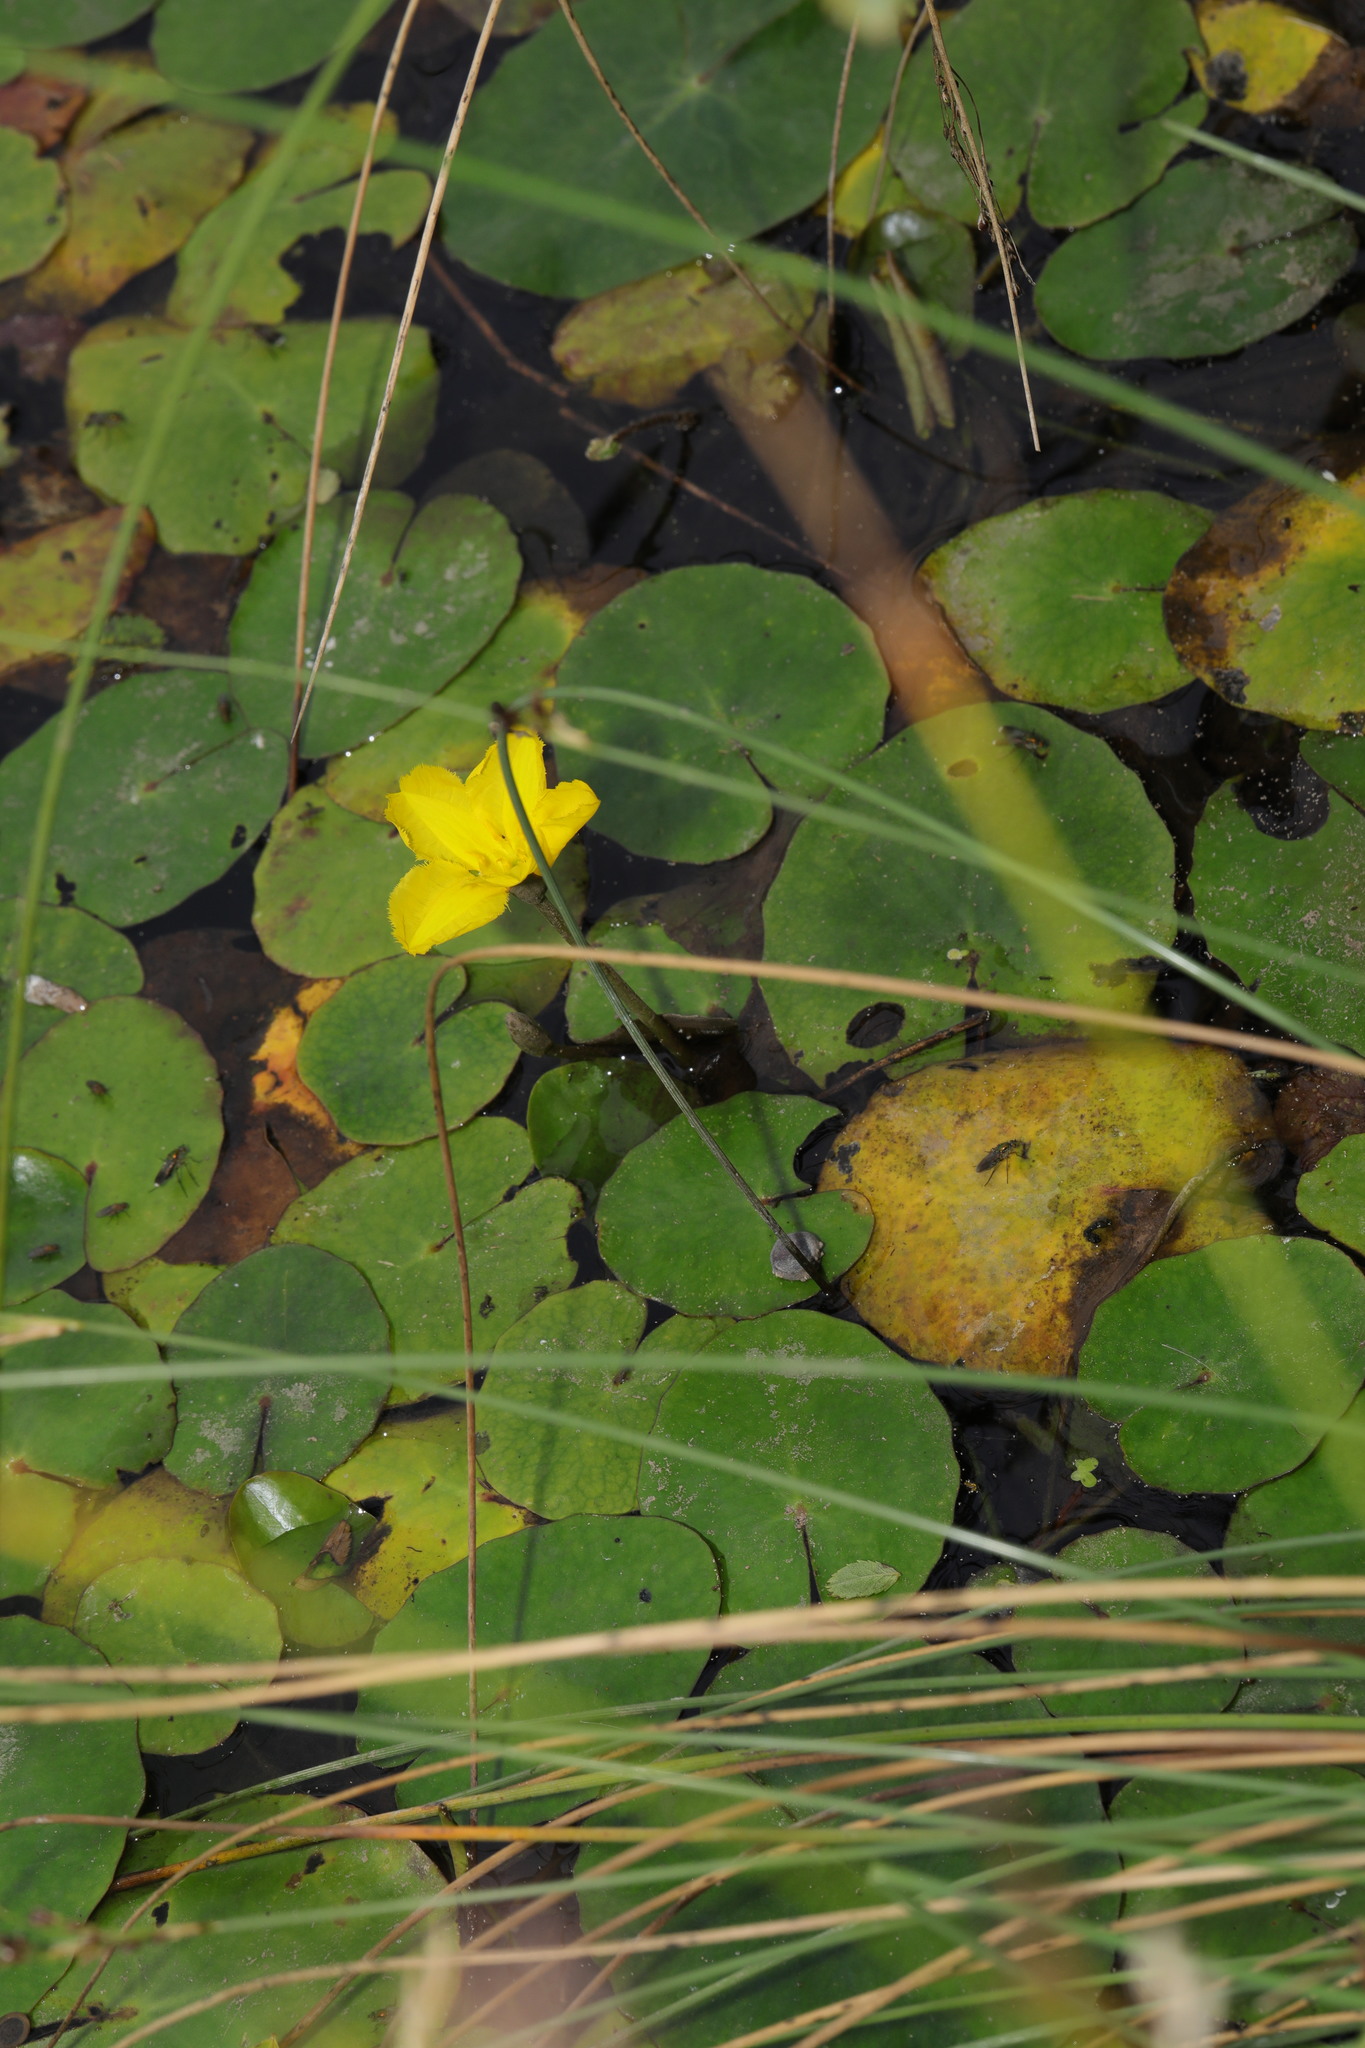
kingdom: Plantae
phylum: Tracheophyta
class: Magnoliopsida
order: Asterales
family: Menyanthaceae
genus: Nymphoides
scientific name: Nymphoides peltata
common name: Fringed water-lily
